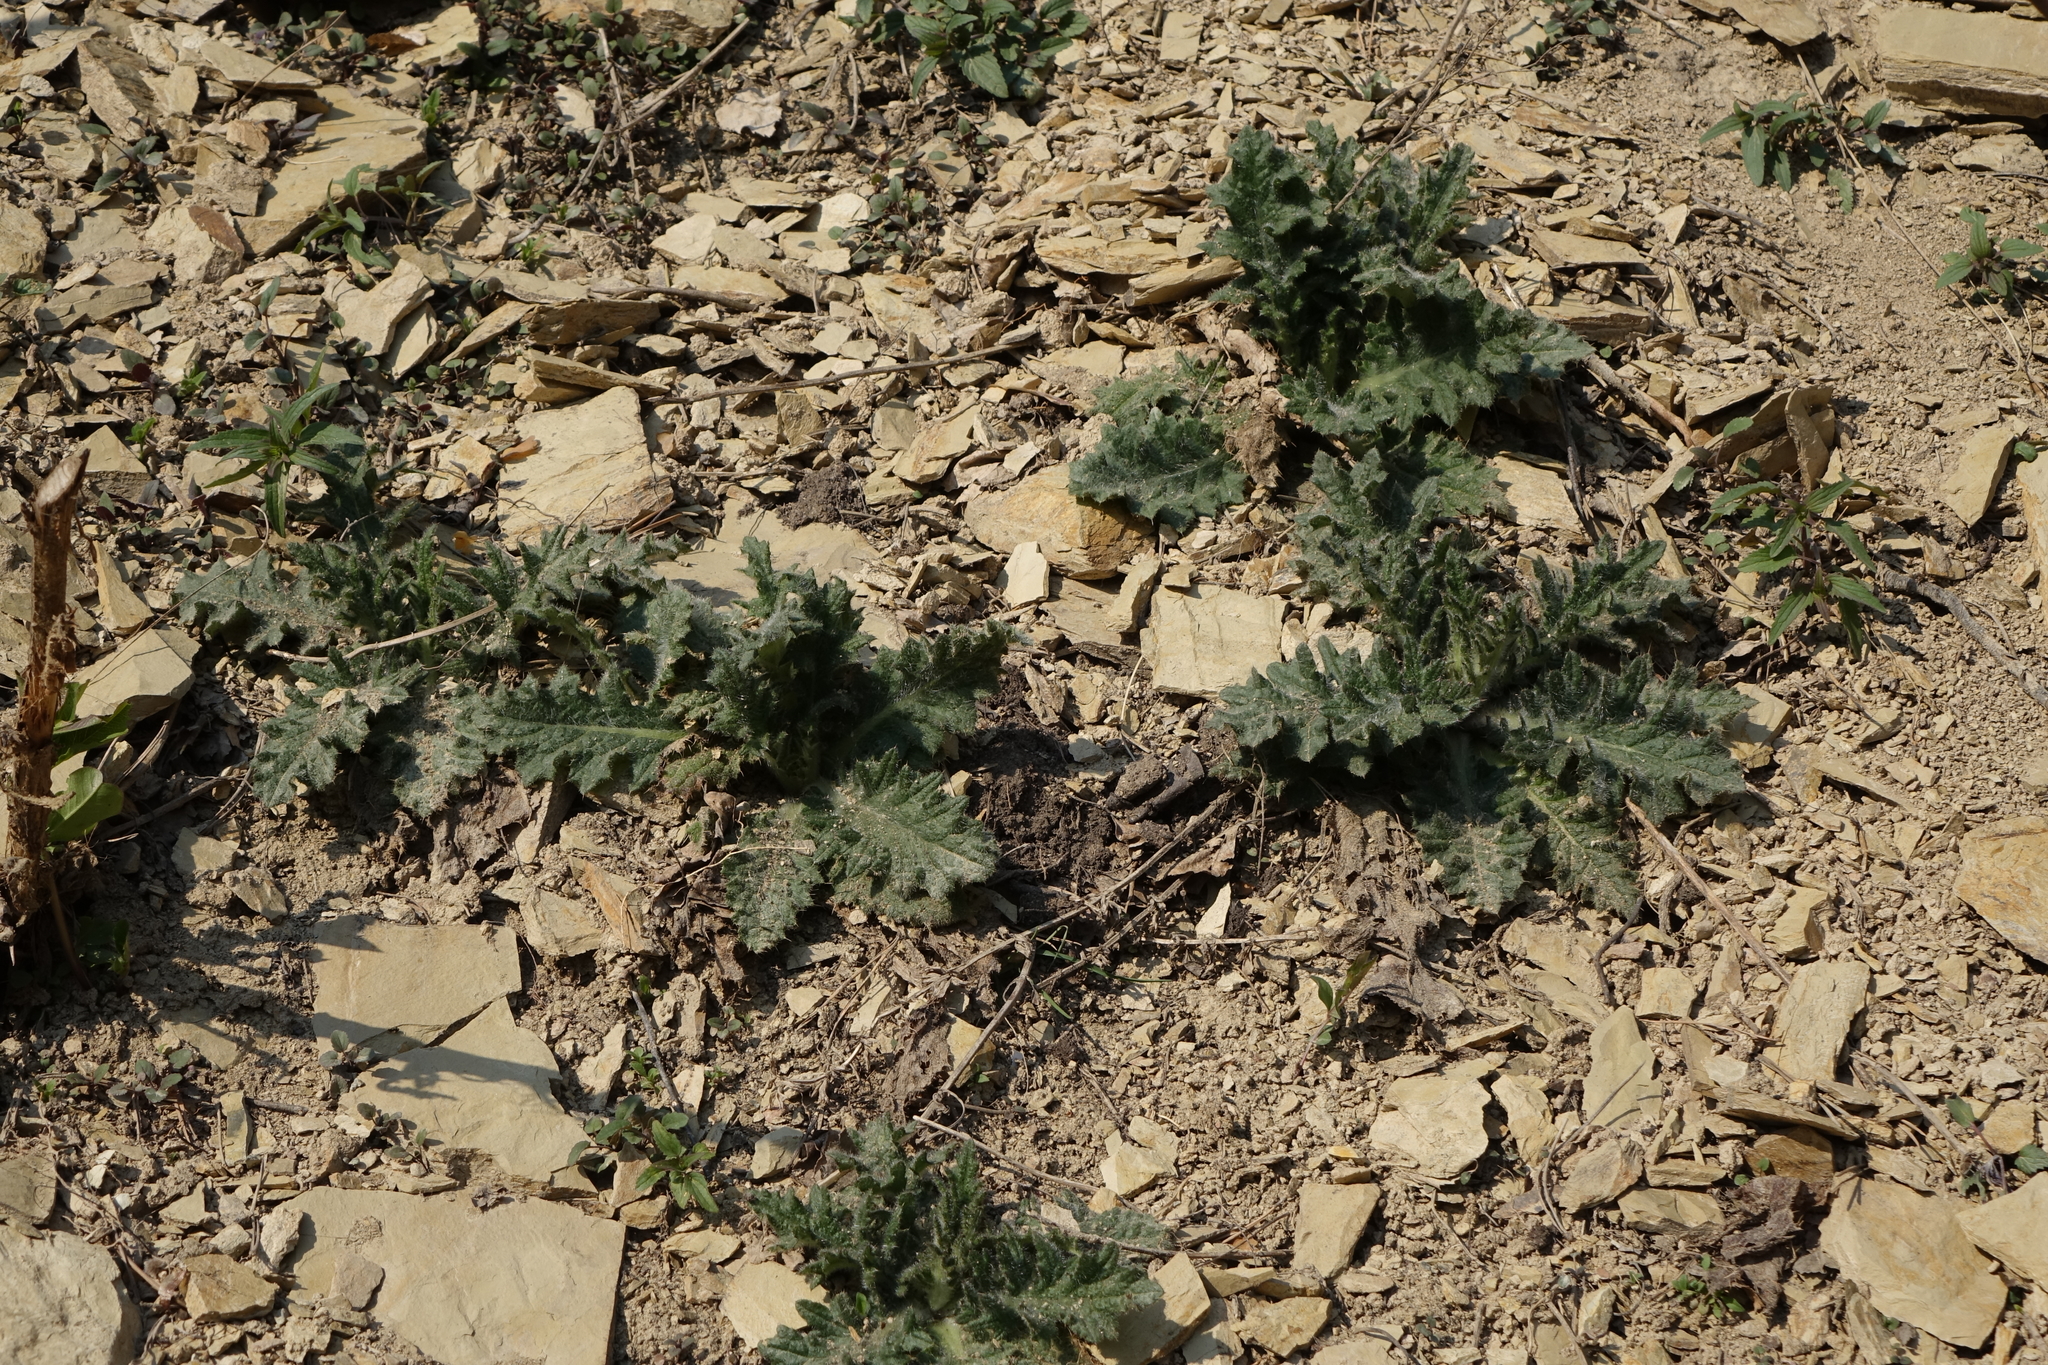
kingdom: Plantae
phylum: Tracheophyta
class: Magnoliopsida
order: Asterales
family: Asteraceae
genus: Cirsium
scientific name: Cirsium vulgare
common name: Bull thistle
